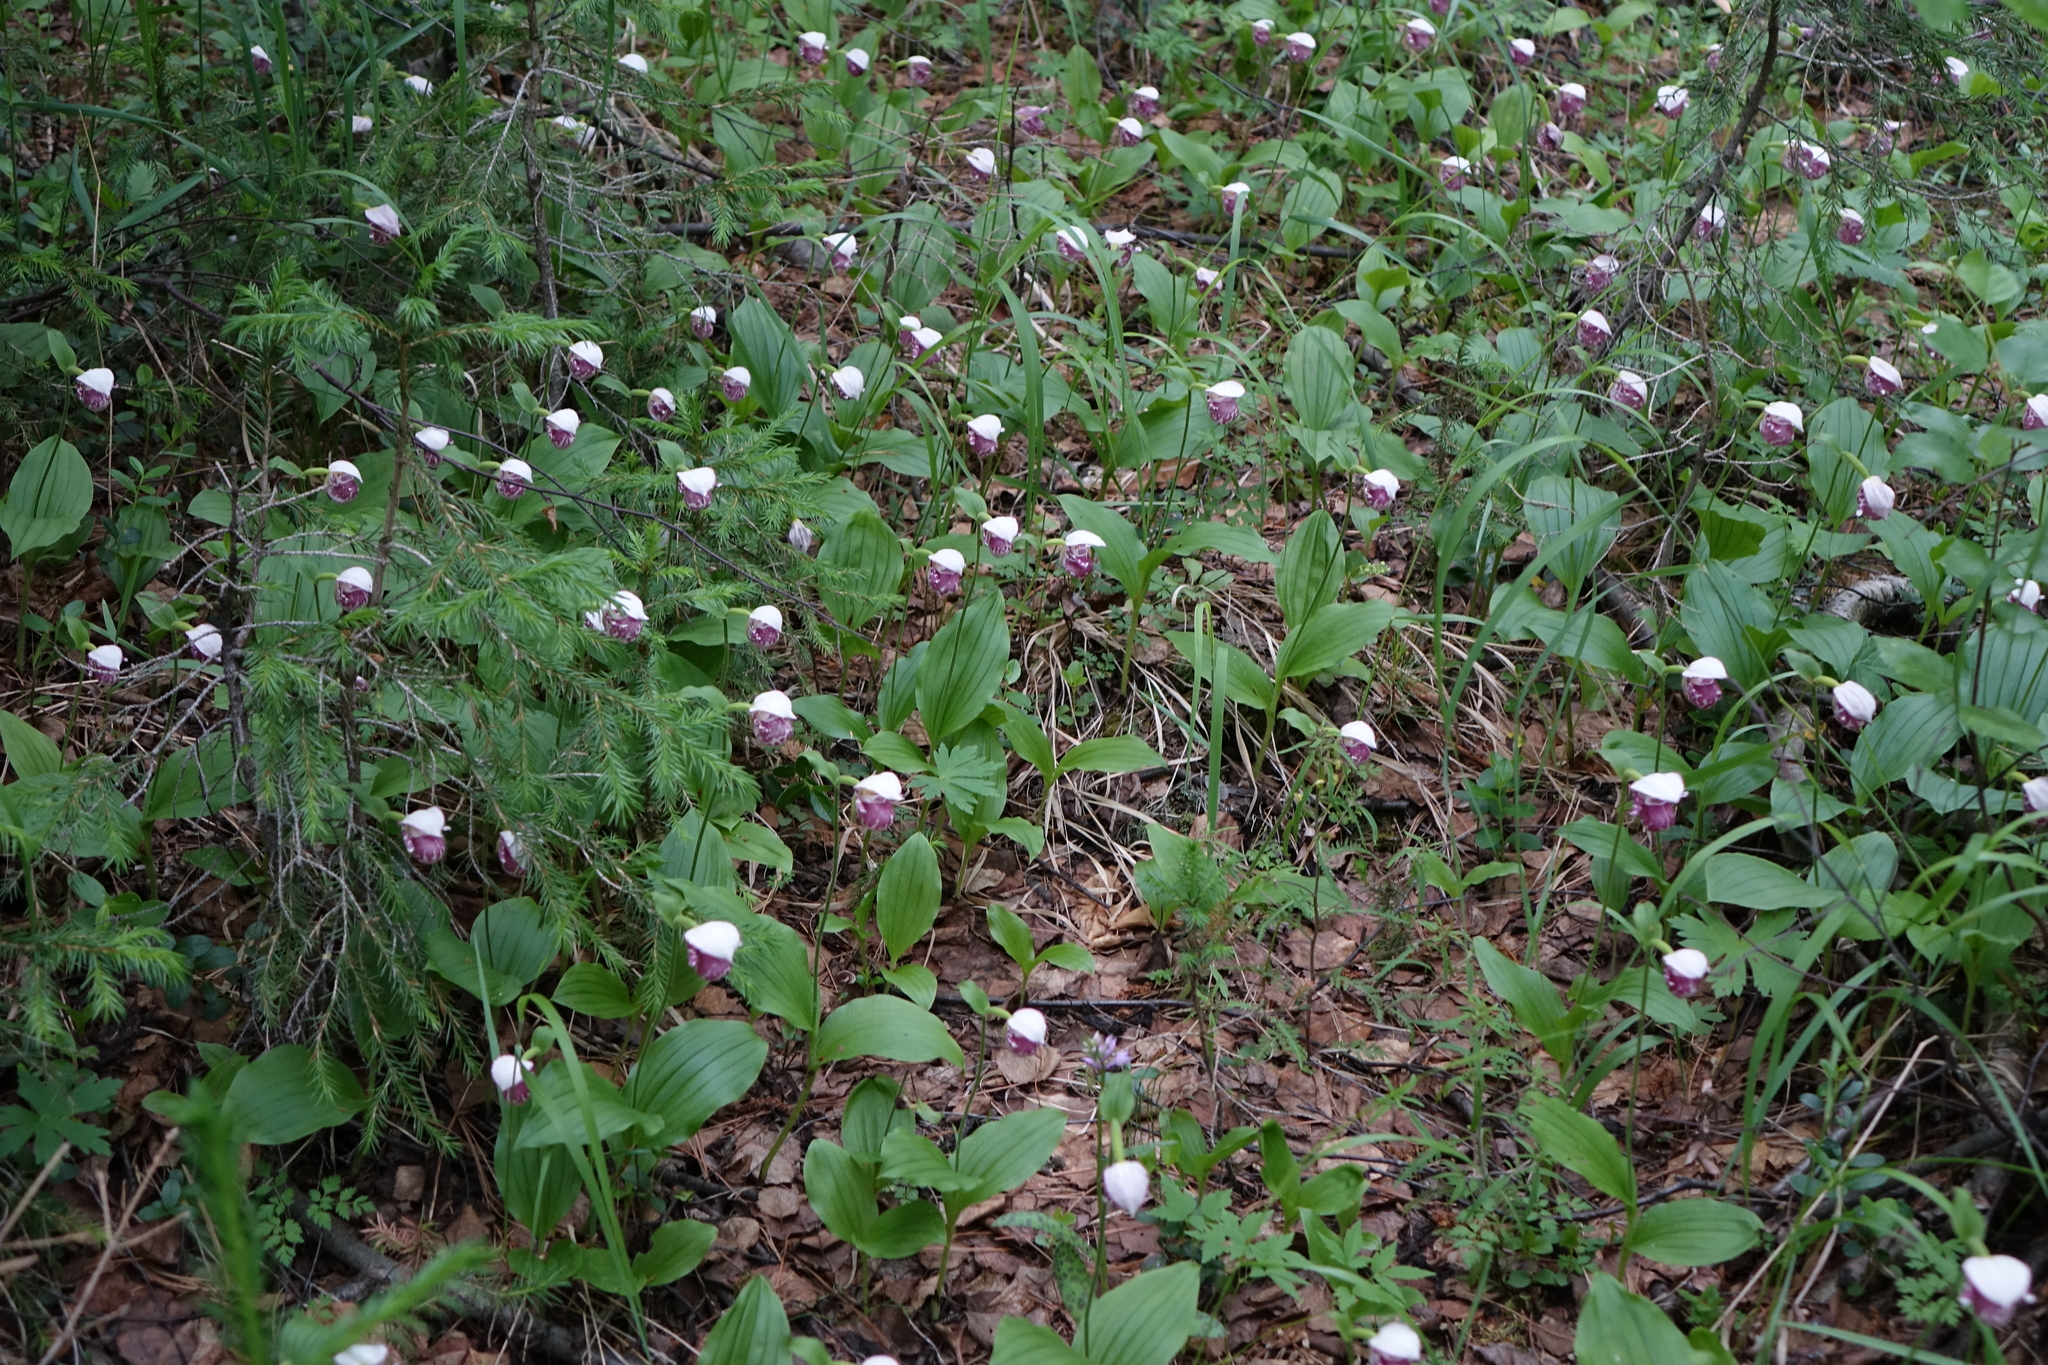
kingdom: Plantae
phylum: Tracheophyta
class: Liliopsida
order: Asparagales
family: Orchidaceae
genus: Cypripedium
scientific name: Cypripedium guttatum
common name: Pink lady slipper
